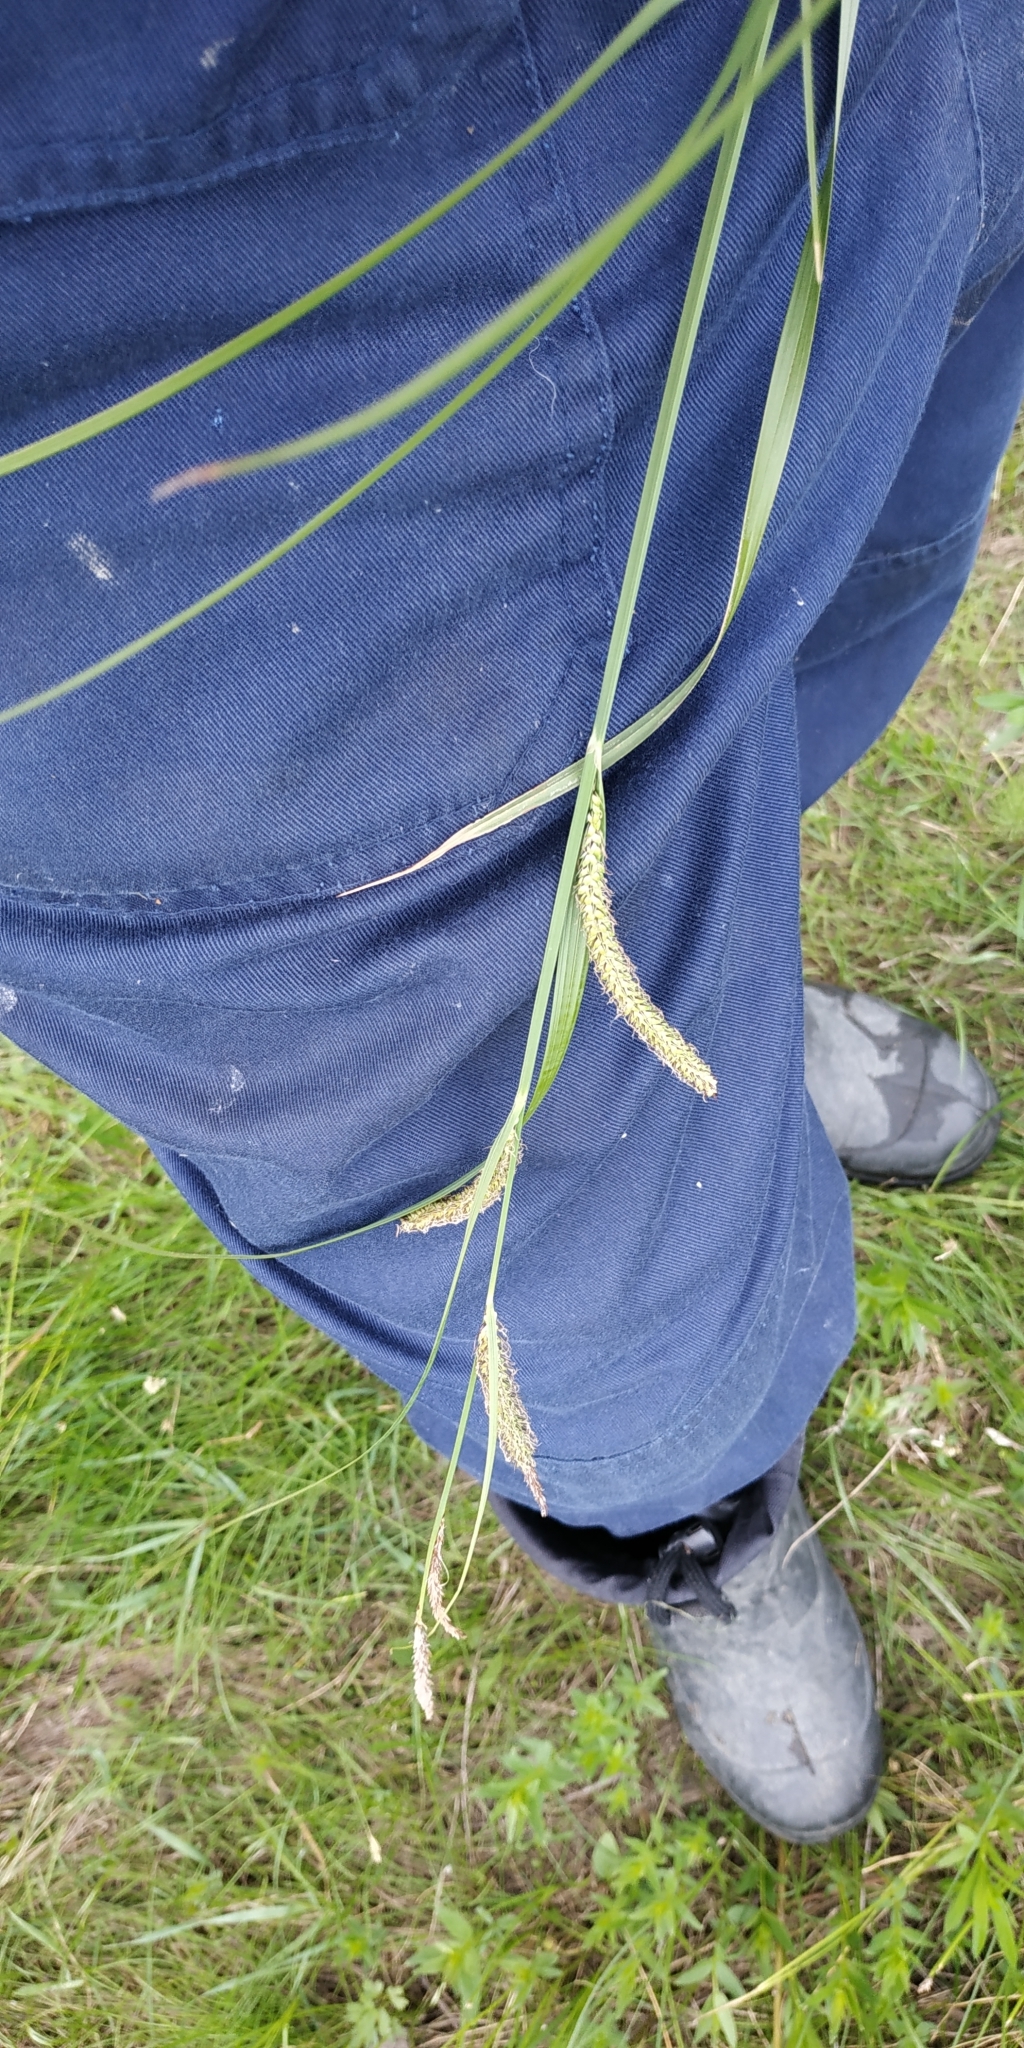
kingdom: Plantae
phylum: Tracheophyta
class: Liliopsida
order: Poales
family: Cyperaceae
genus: Carex
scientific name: Carex acuta
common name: Slender tufted-sedge
